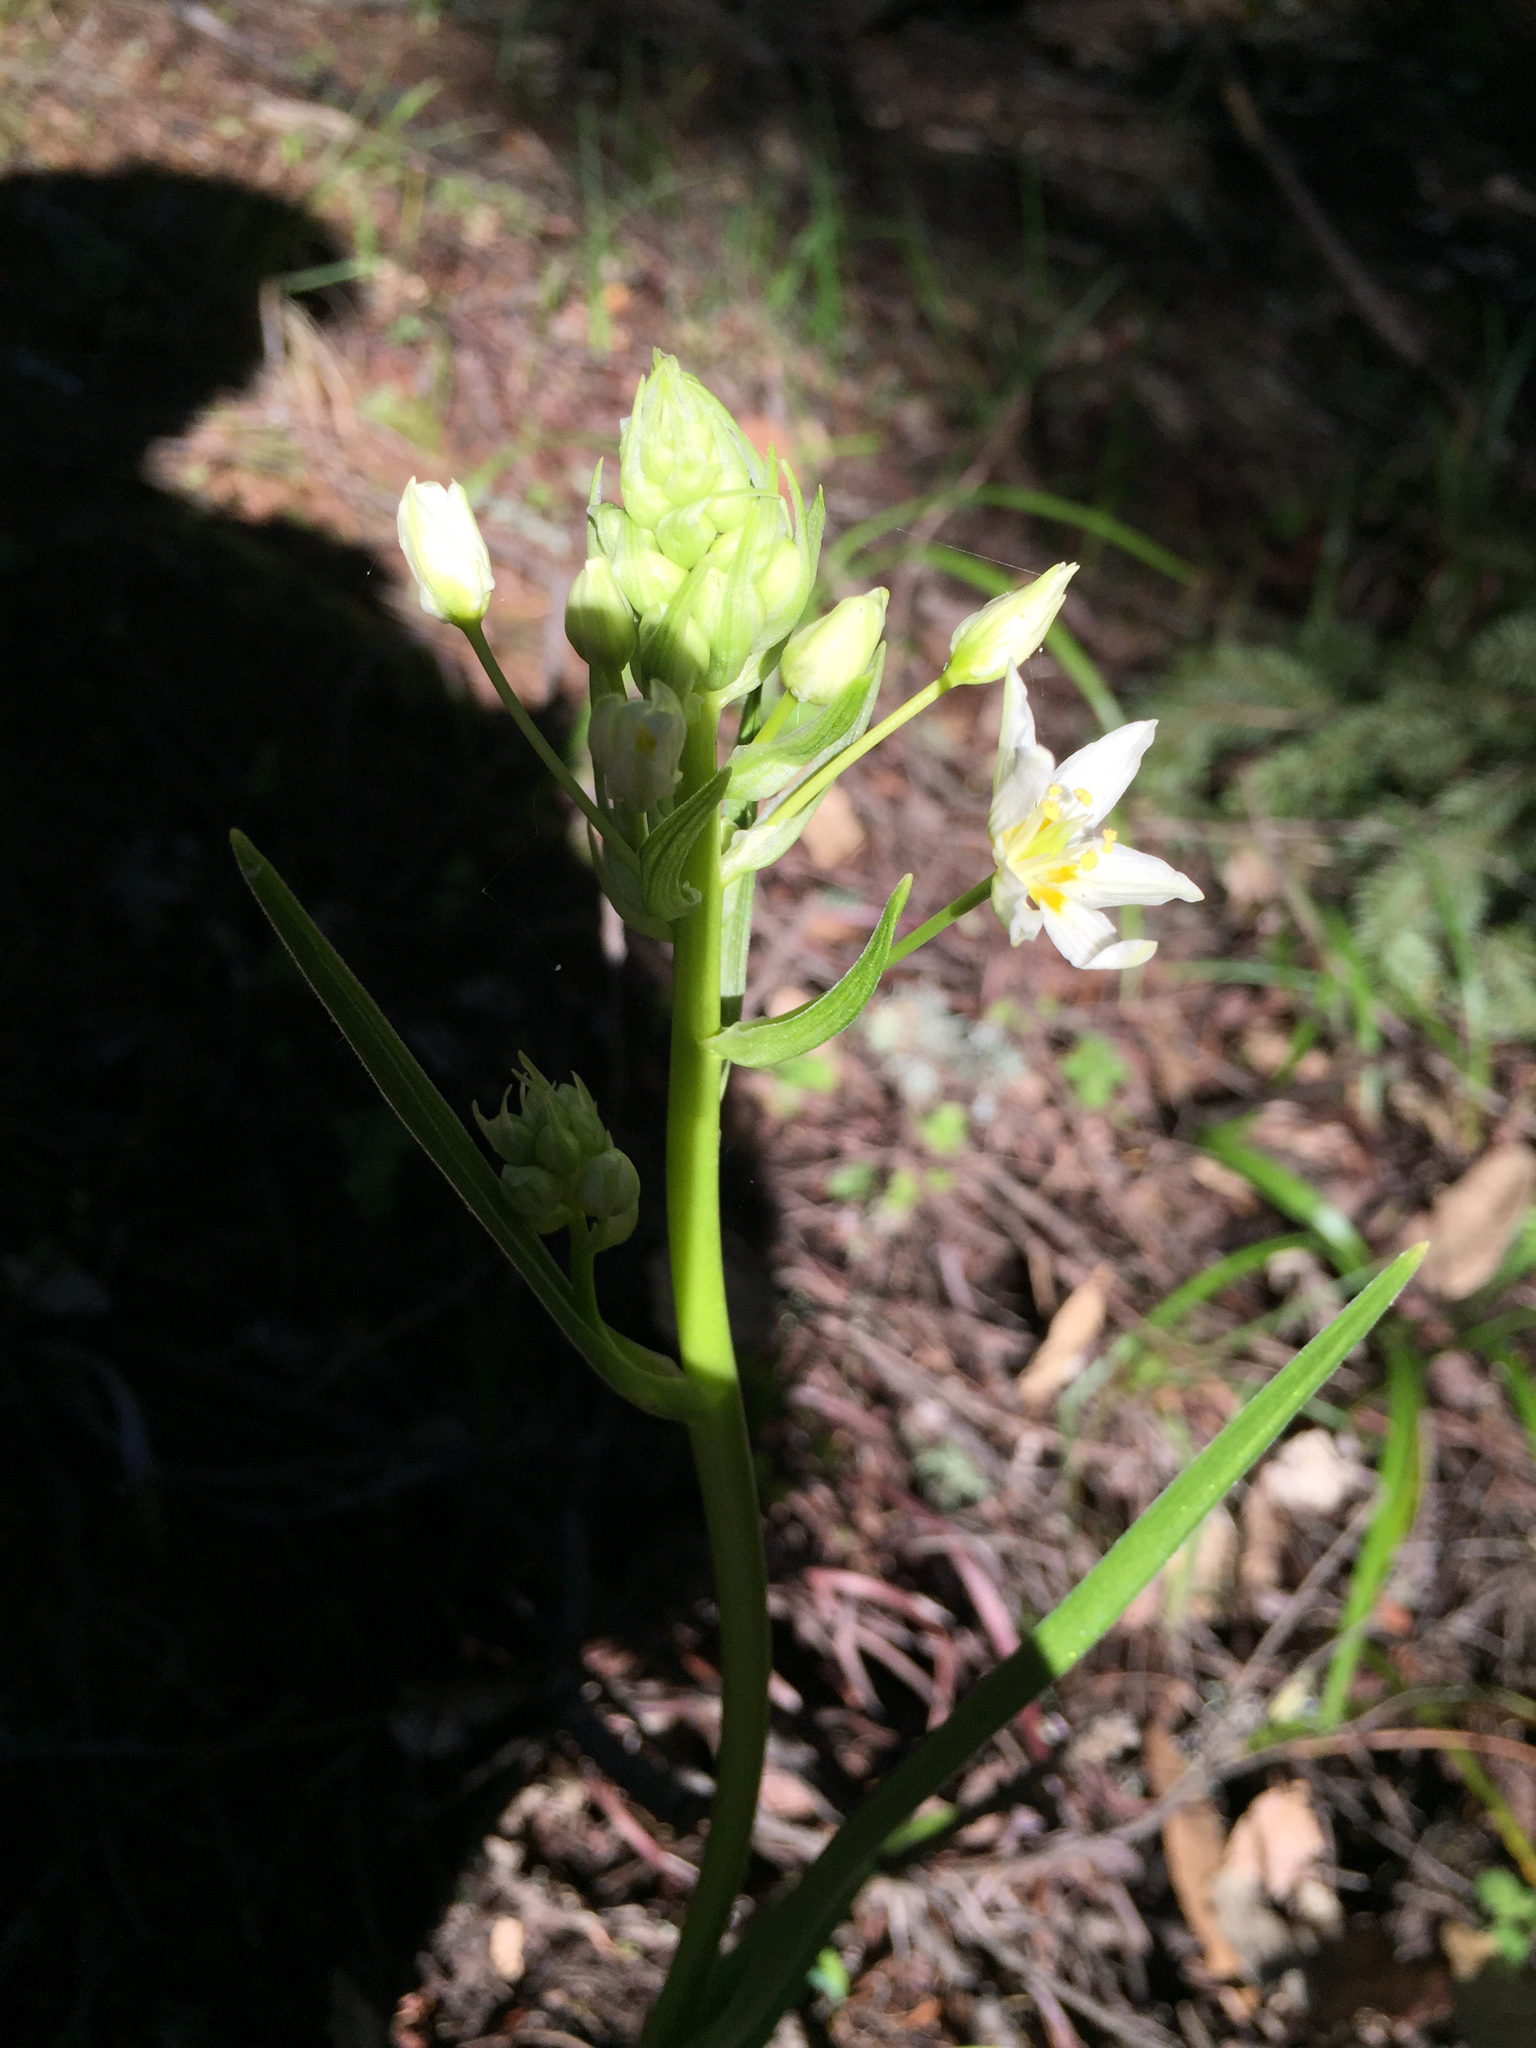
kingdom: Plantae
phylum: Tracheophyta
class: Liliopsida
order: Liliales
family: Melanthiaceae
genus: Toxicoscordion
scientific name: Toxicoscordion fremontii
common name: Fremont's death camas
